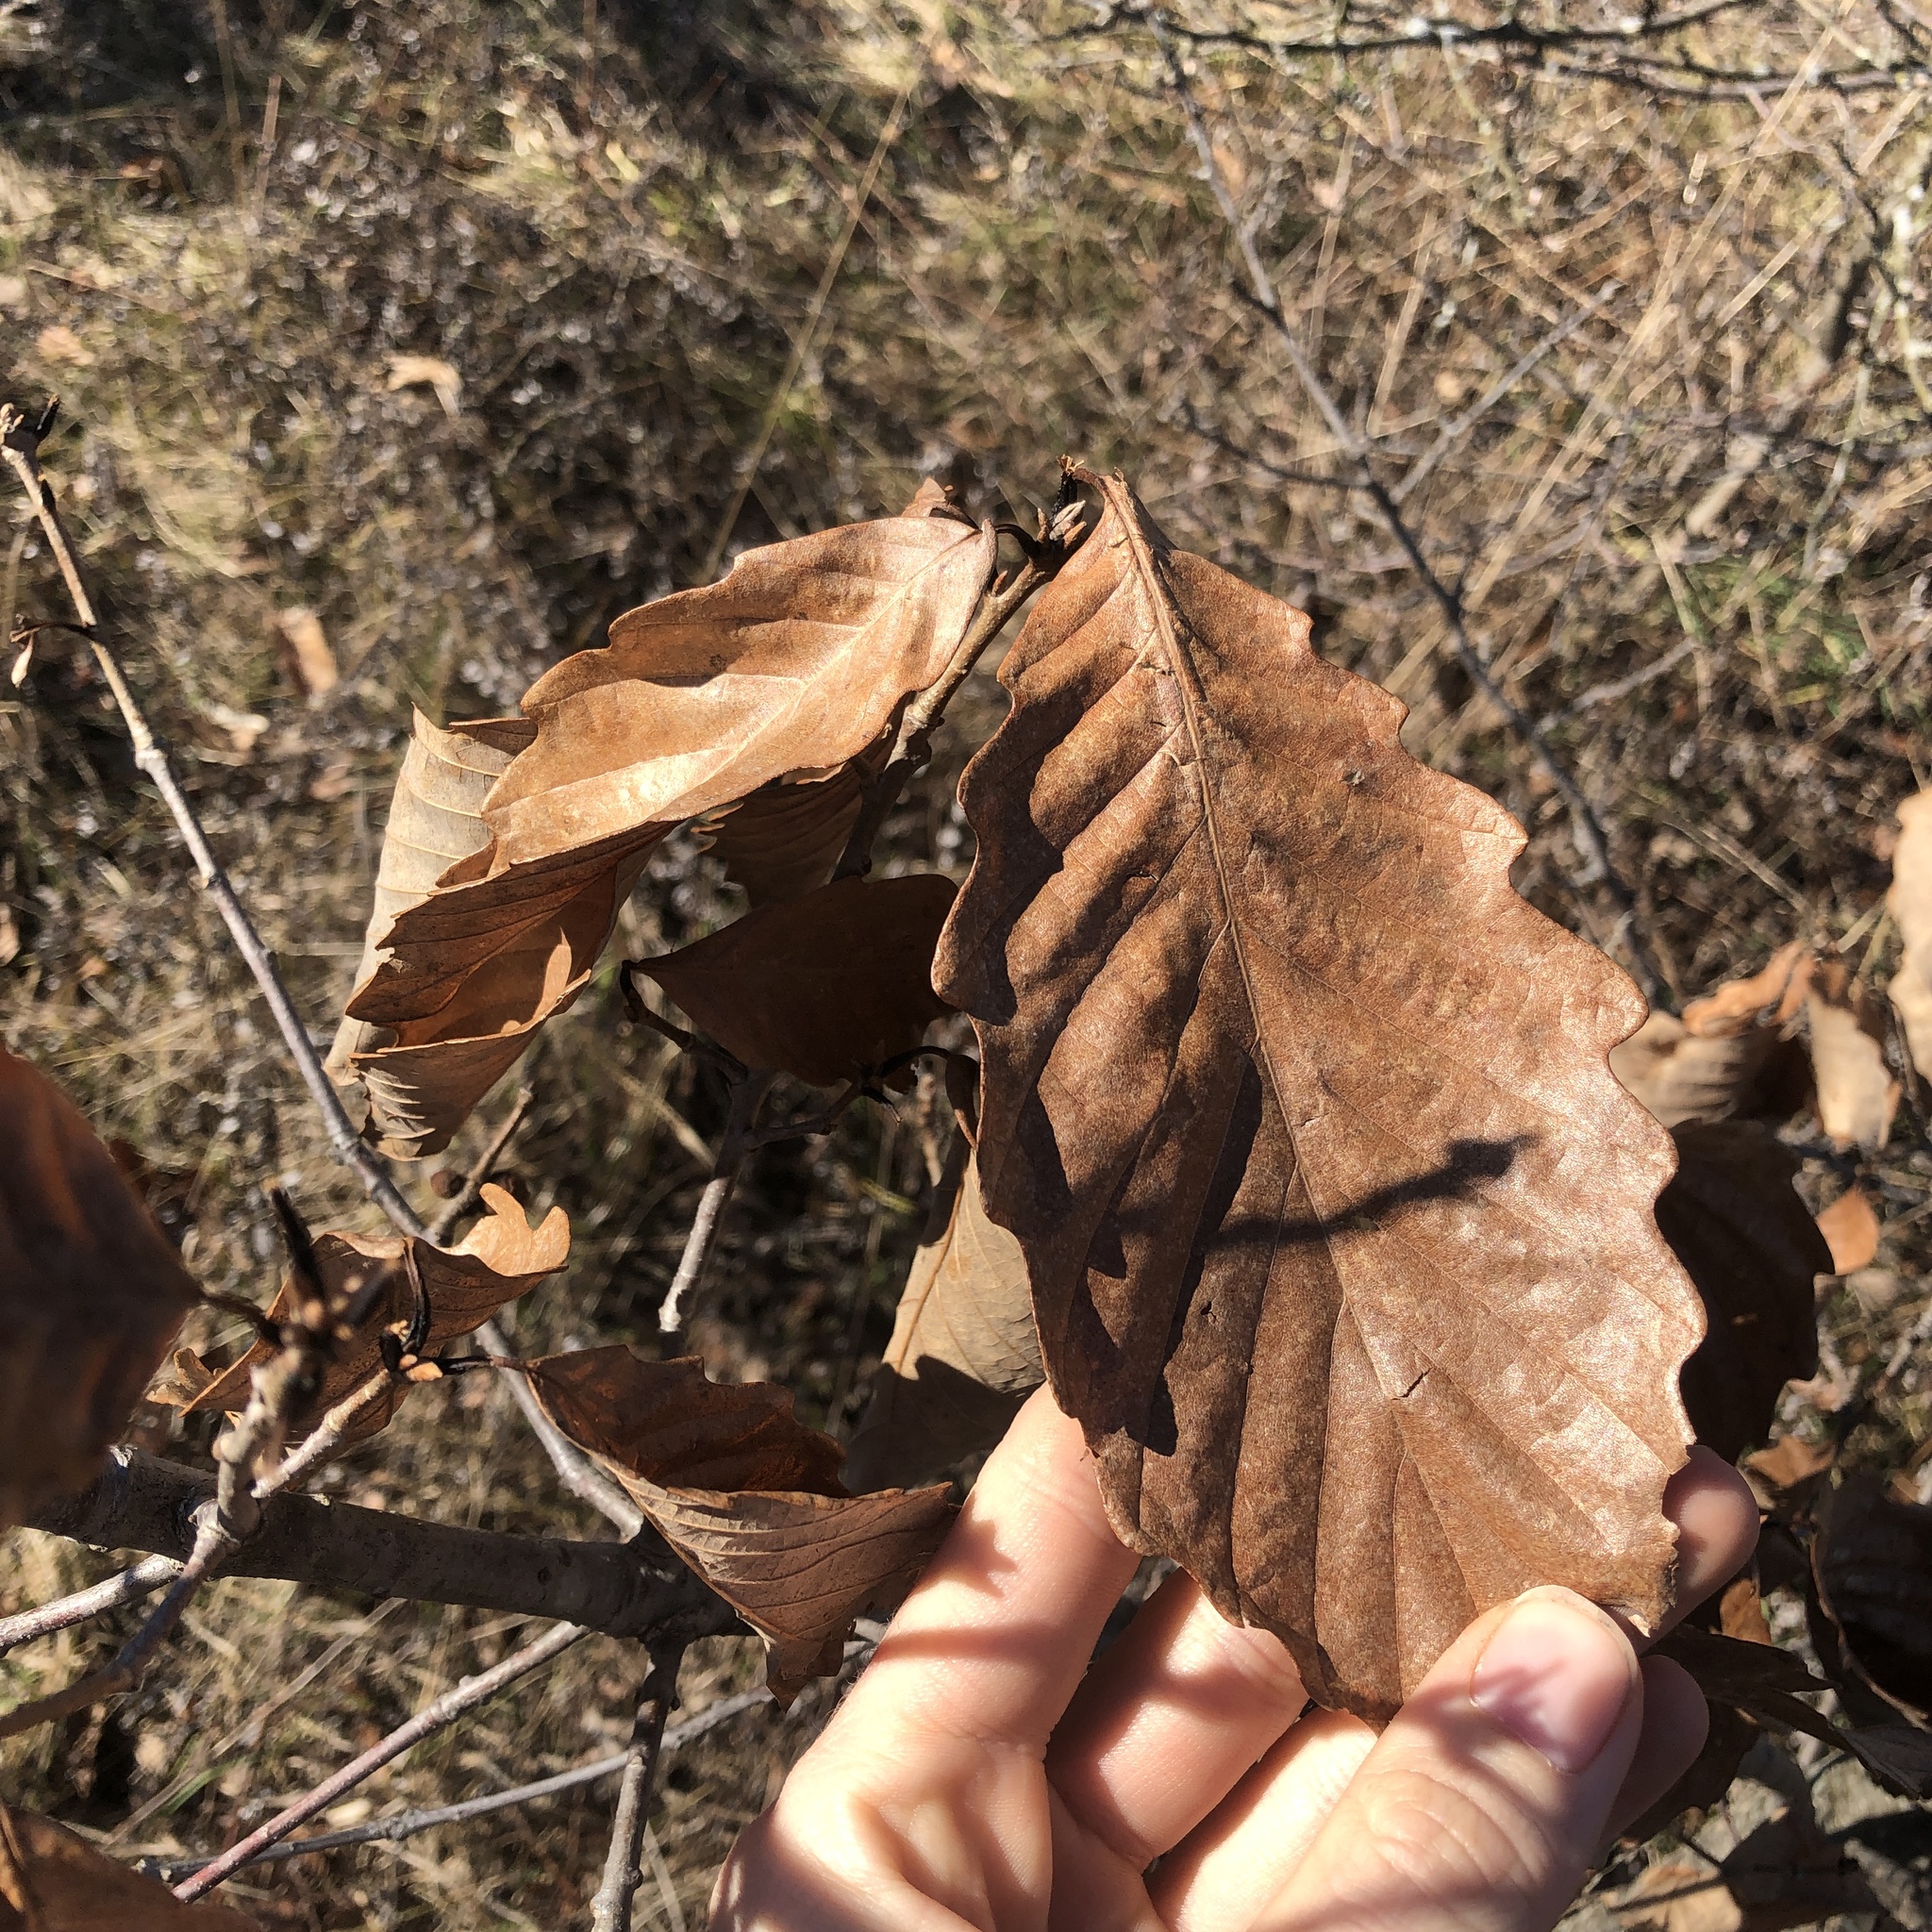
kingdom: Plantae
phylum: Tracheophyta
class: Magnoliopsida
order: Fagales
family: Fagaceae
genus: Quercus
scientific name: Quercus montana
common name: Chestnut oak
